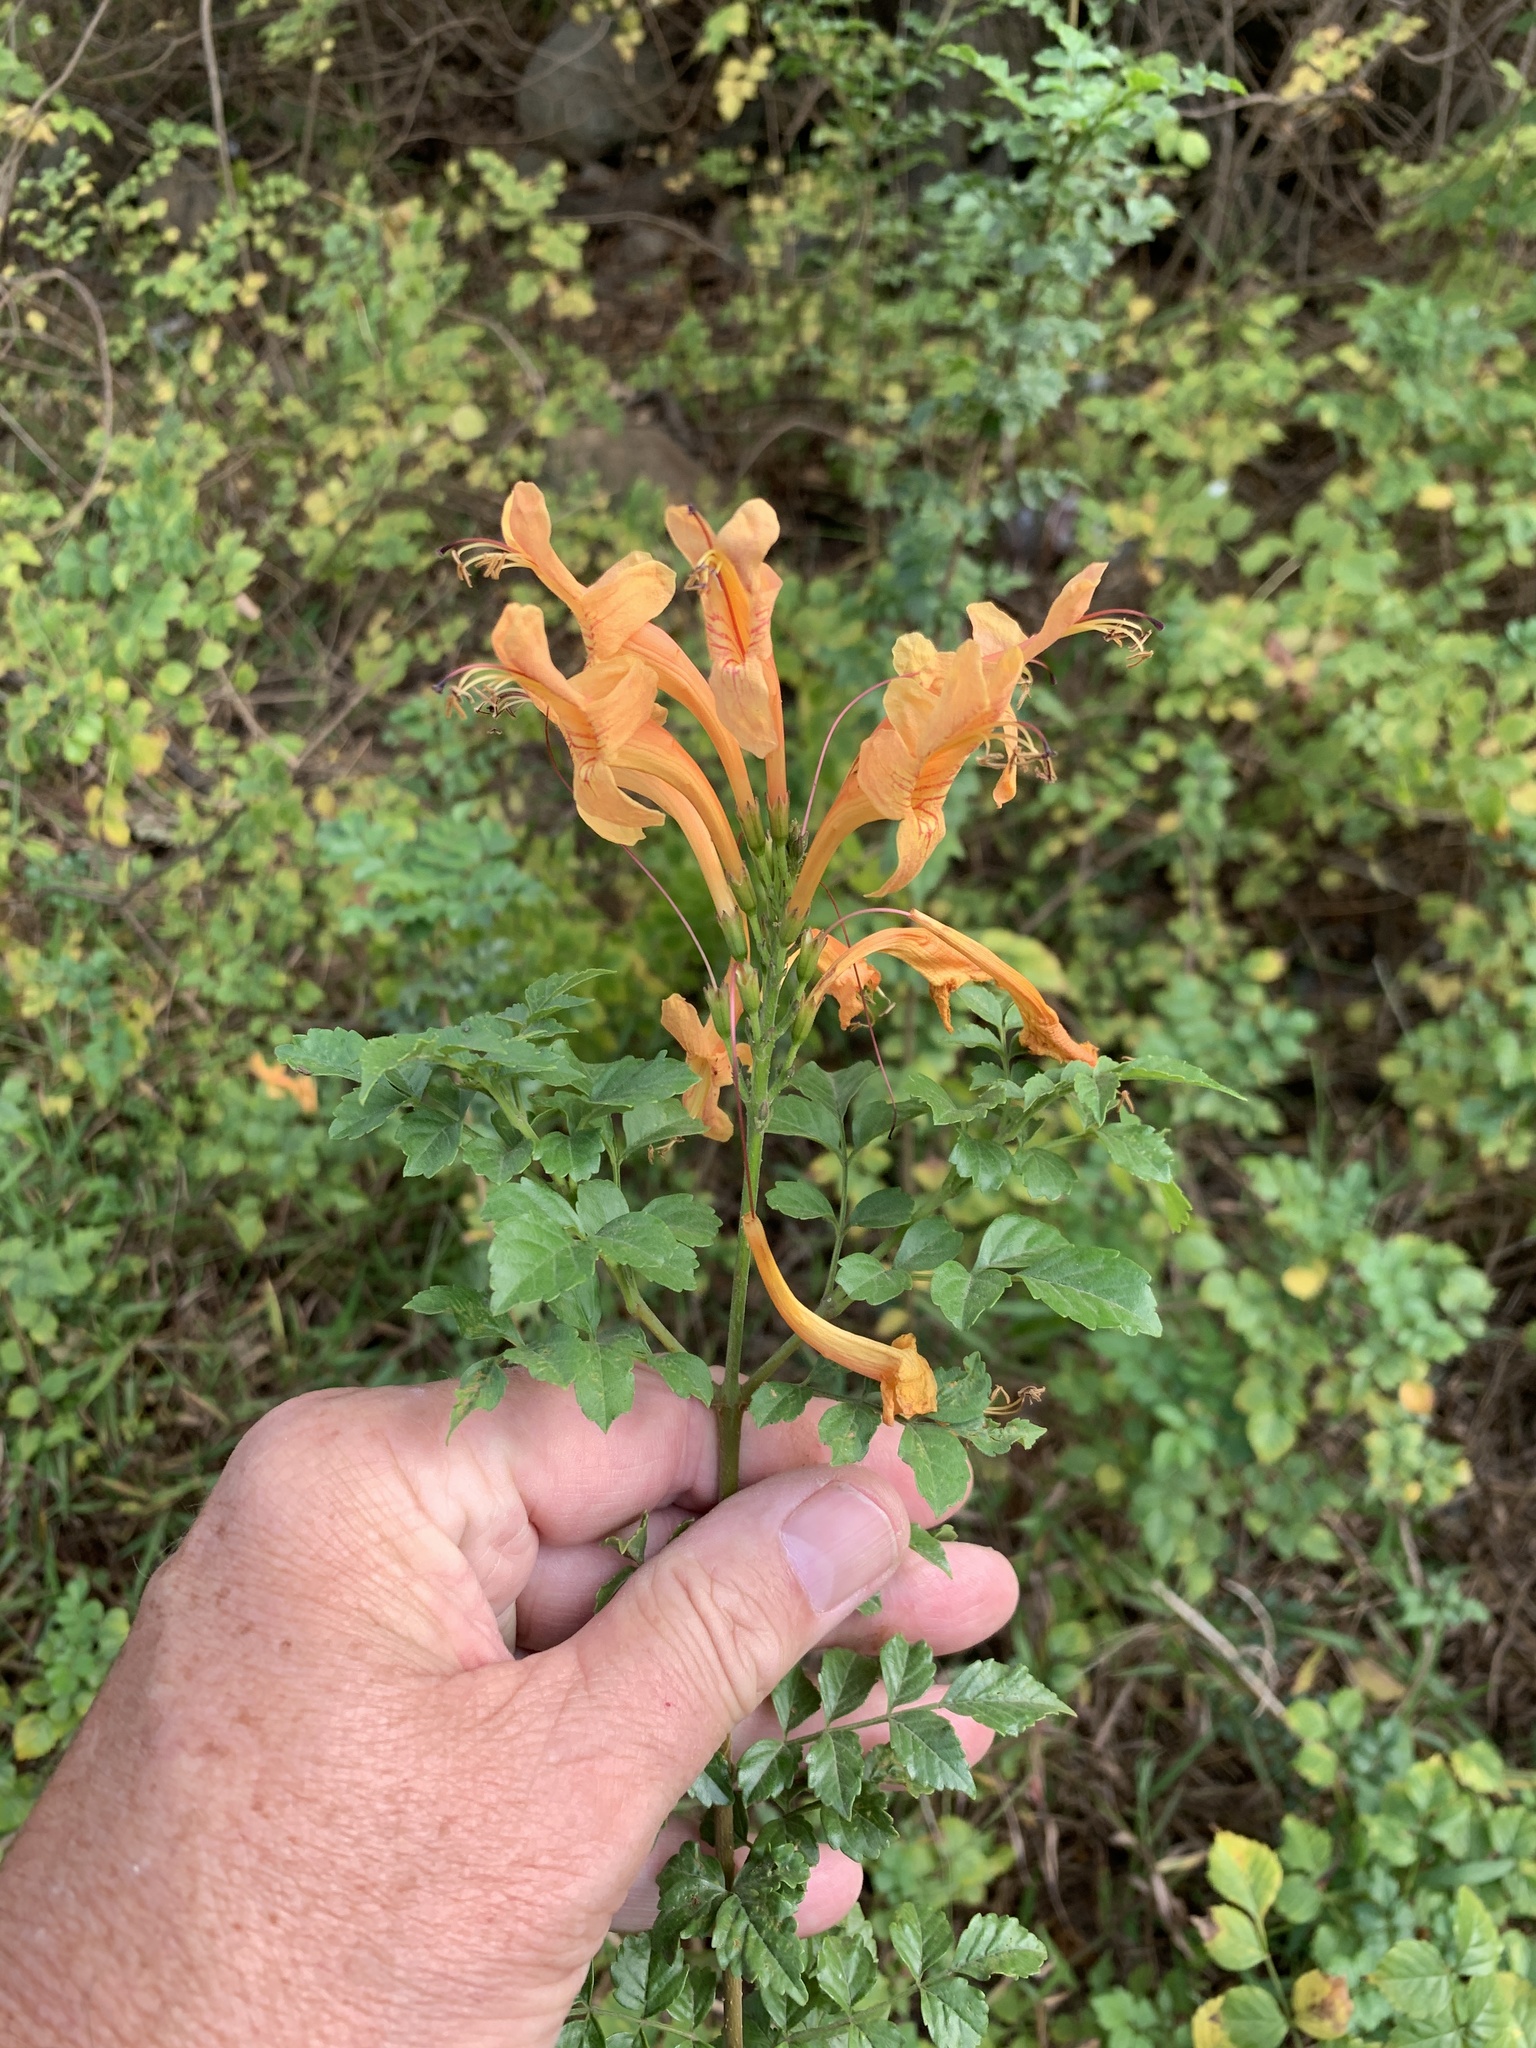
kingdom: Plantae
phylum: Tracheophyta
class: Magnoliopsida
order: Lamiales
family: Bignoniaceae
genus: Tecomaria
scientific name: Tecomaria capensis
